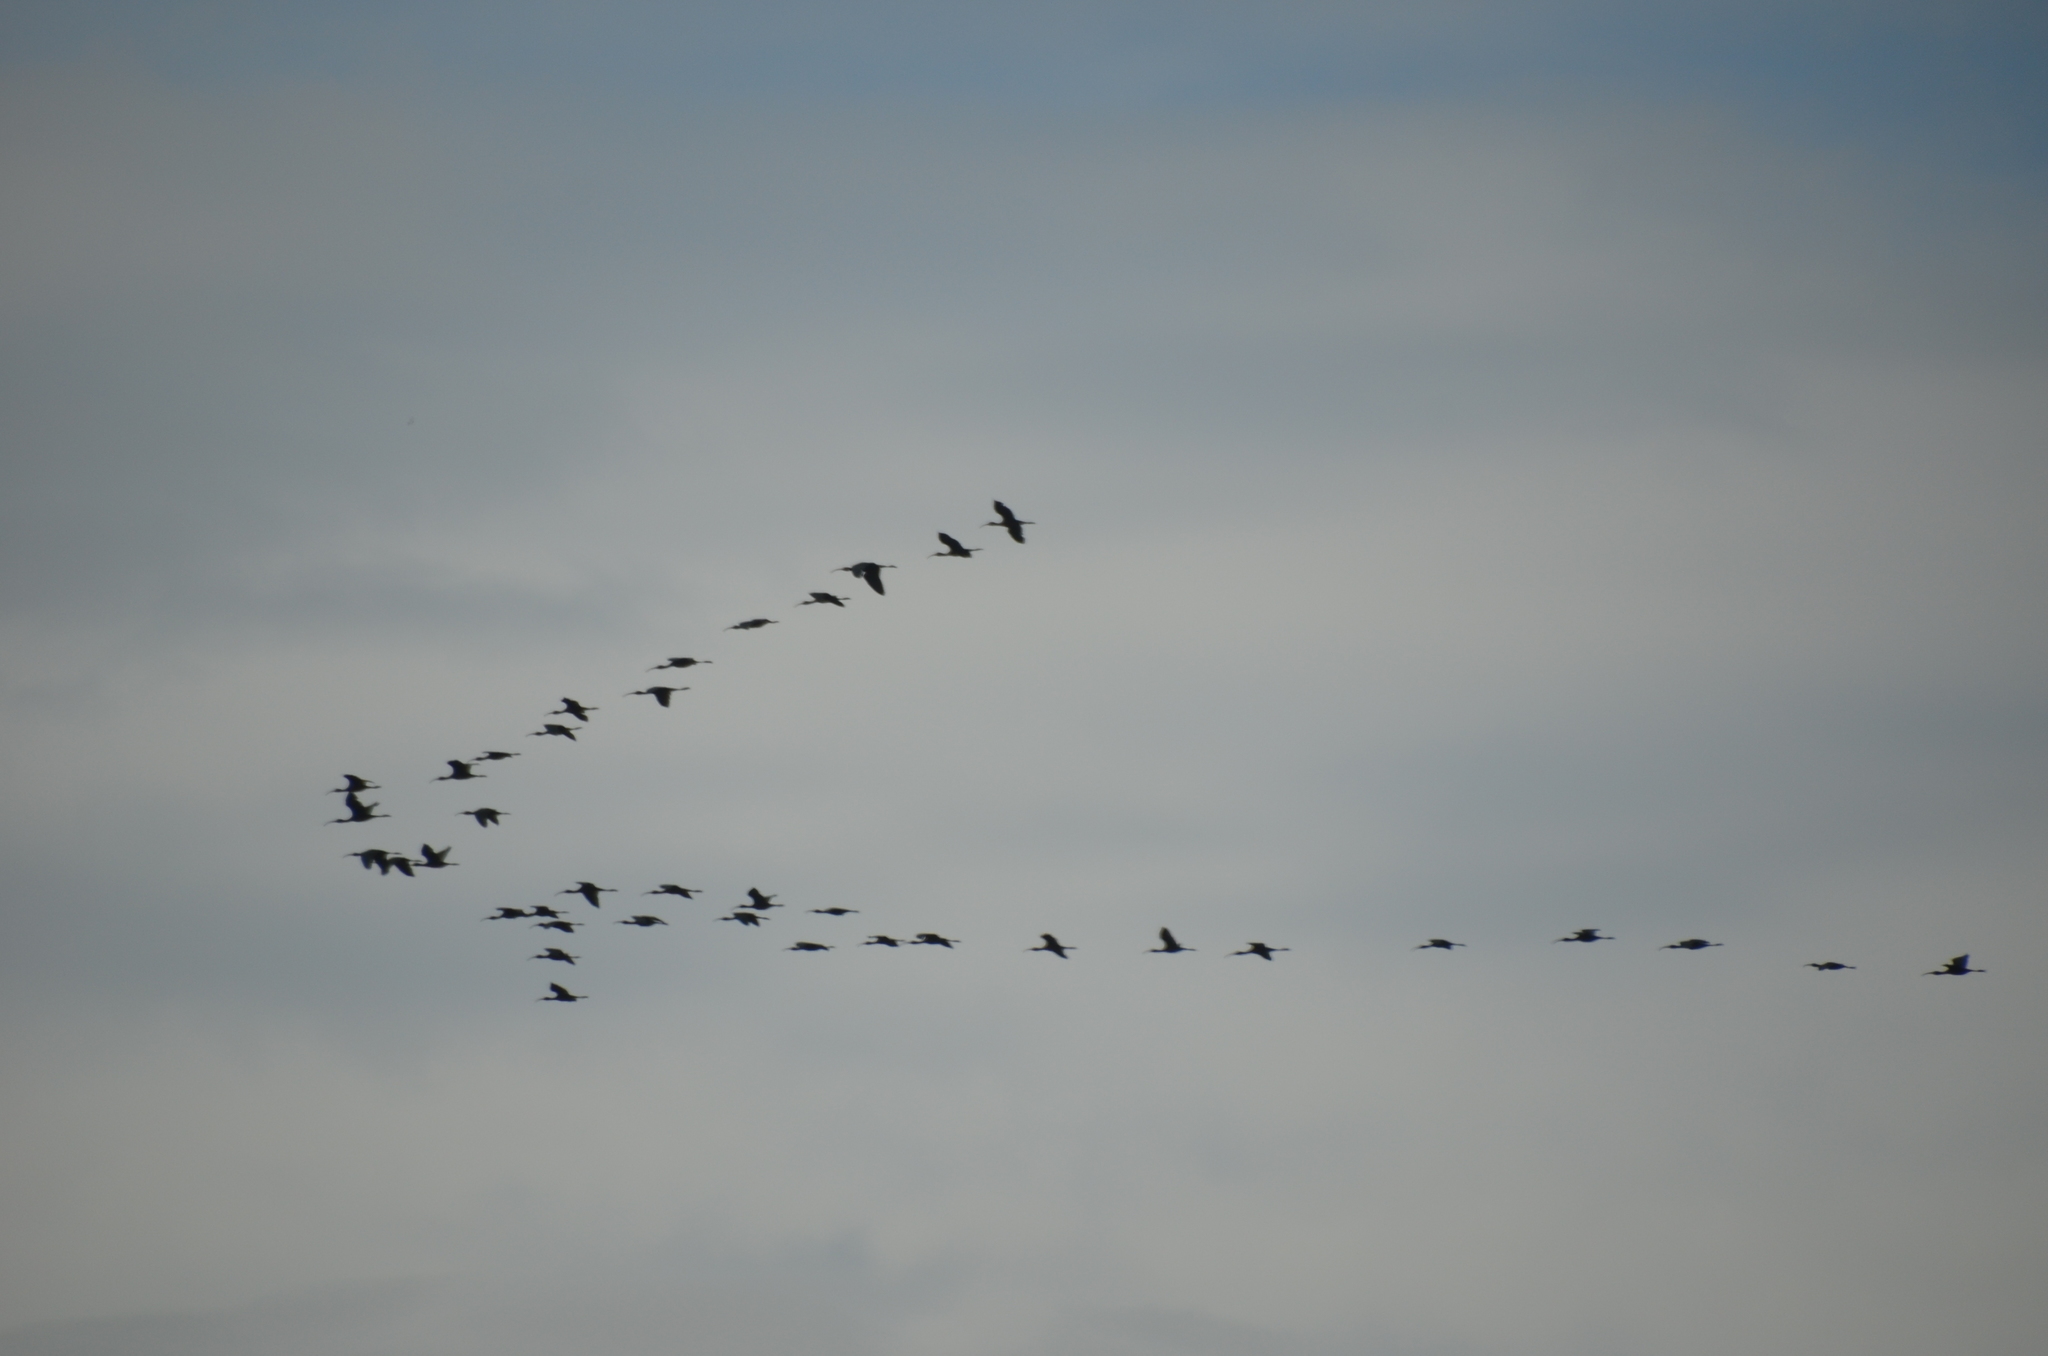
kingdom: Animalia
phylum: Chordata
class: Aves
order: Pelecaniformes
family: Threskiornithidae
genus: Plegadis
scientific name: Plegadis chihi
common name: White-faced ibis
